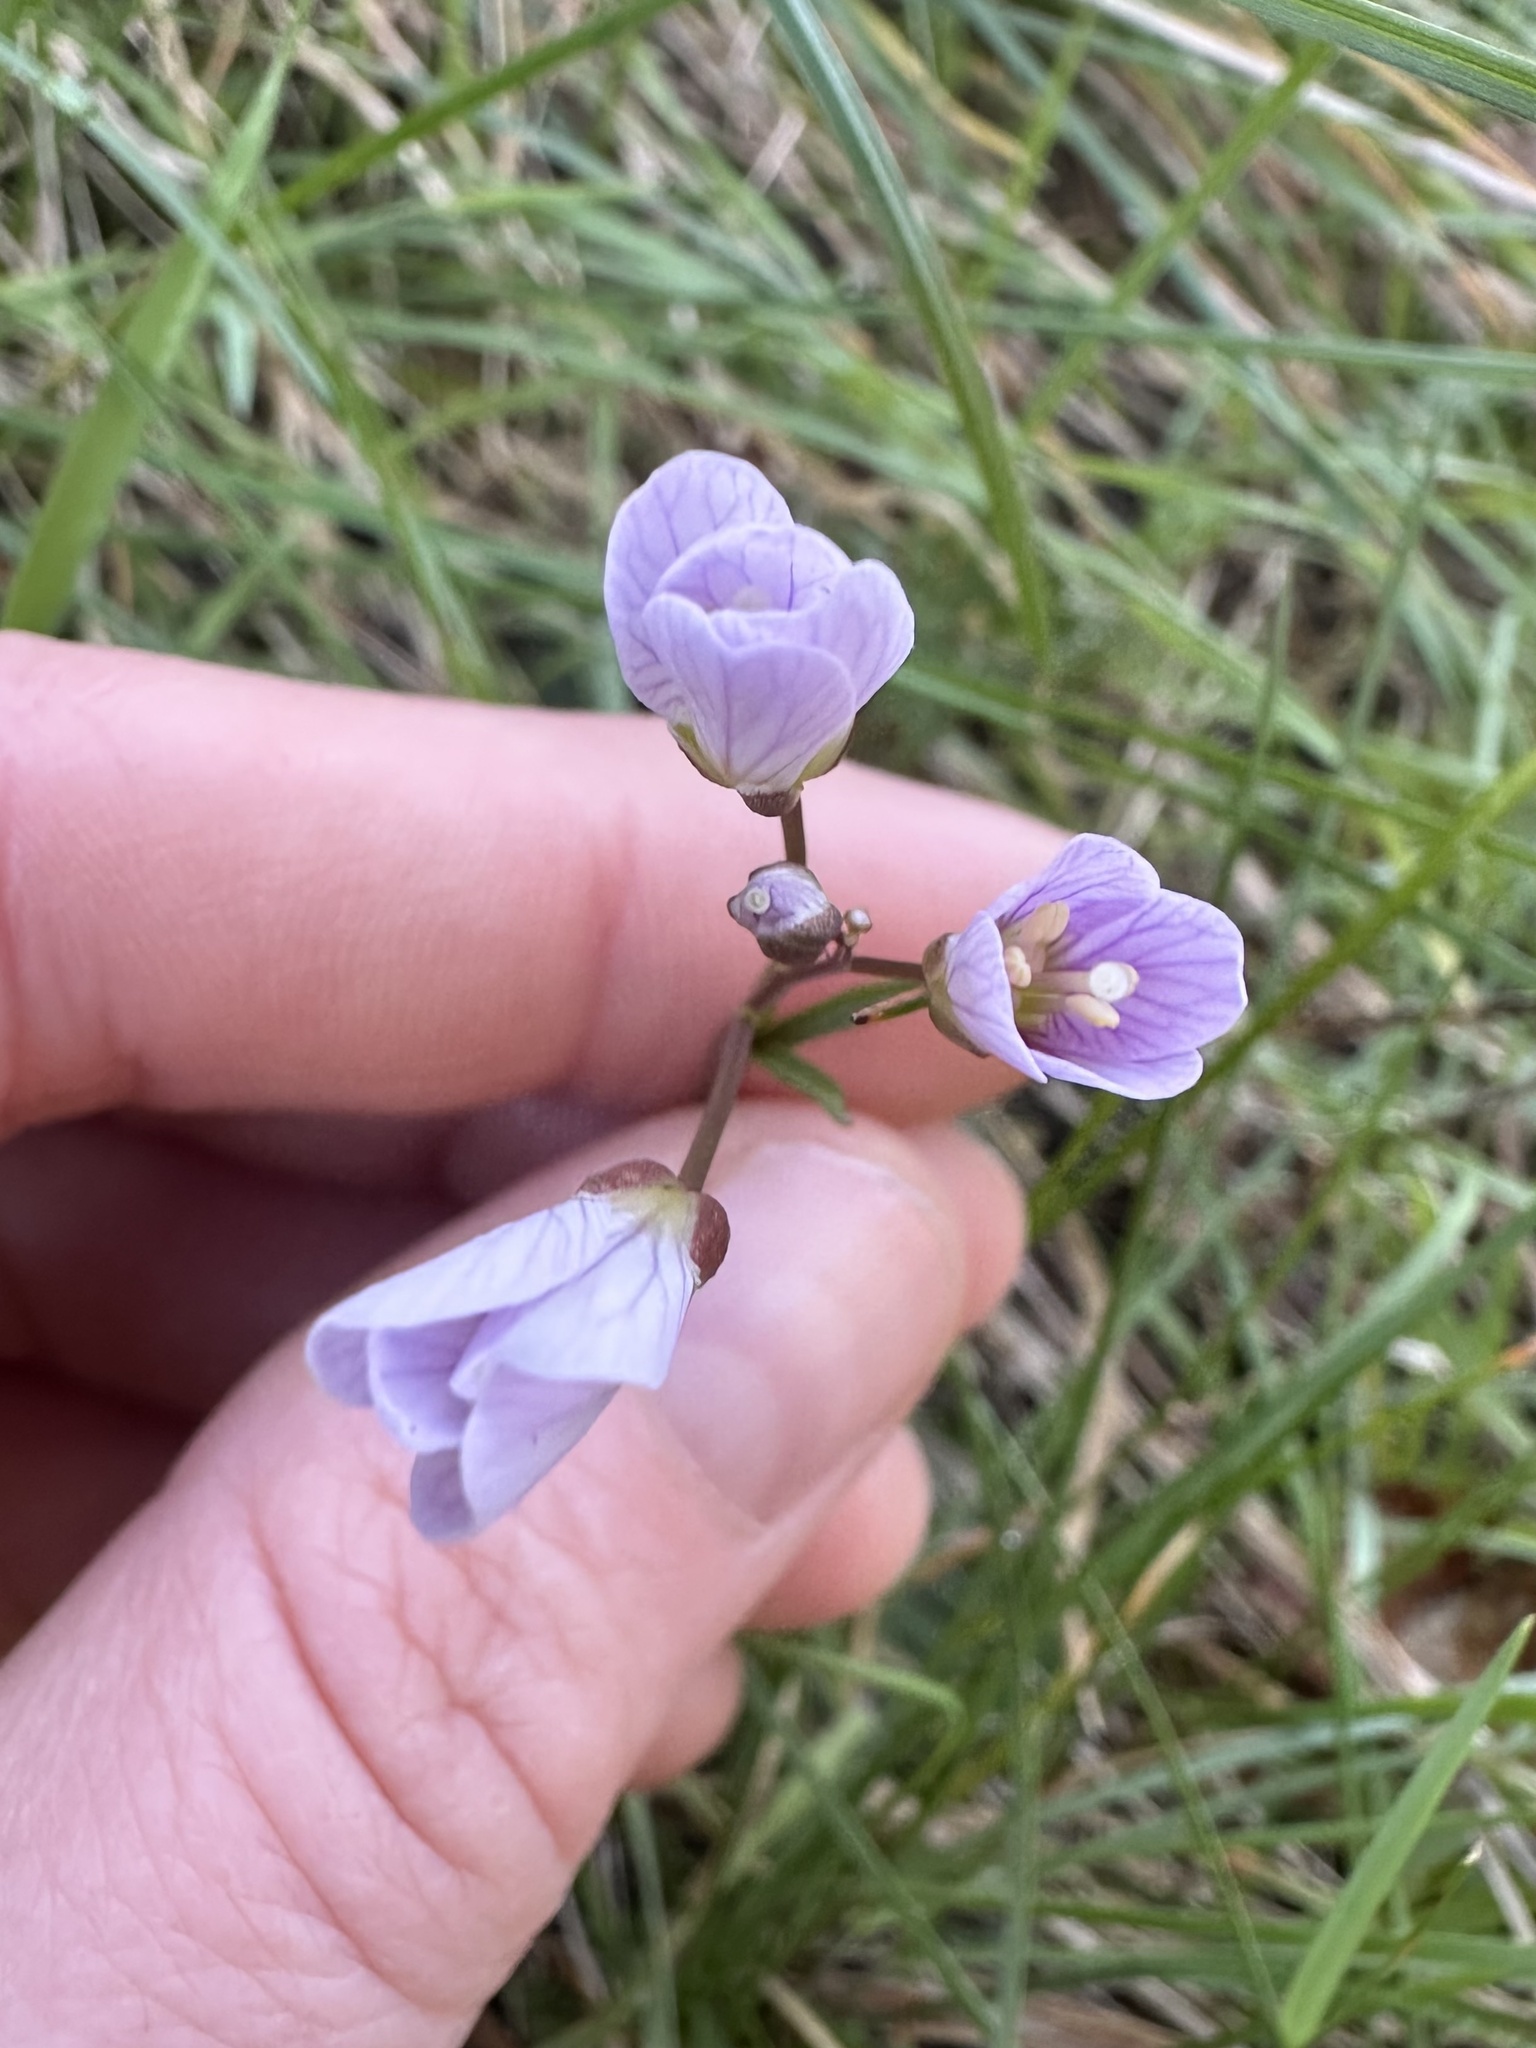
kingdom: Plantae
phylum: Tracheophyta
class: Magnoliopsida
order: Brassicales
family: Brassicaceae
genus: Cardamine
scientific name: Cardamine nuttallii
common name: Nuttall's toothwort
